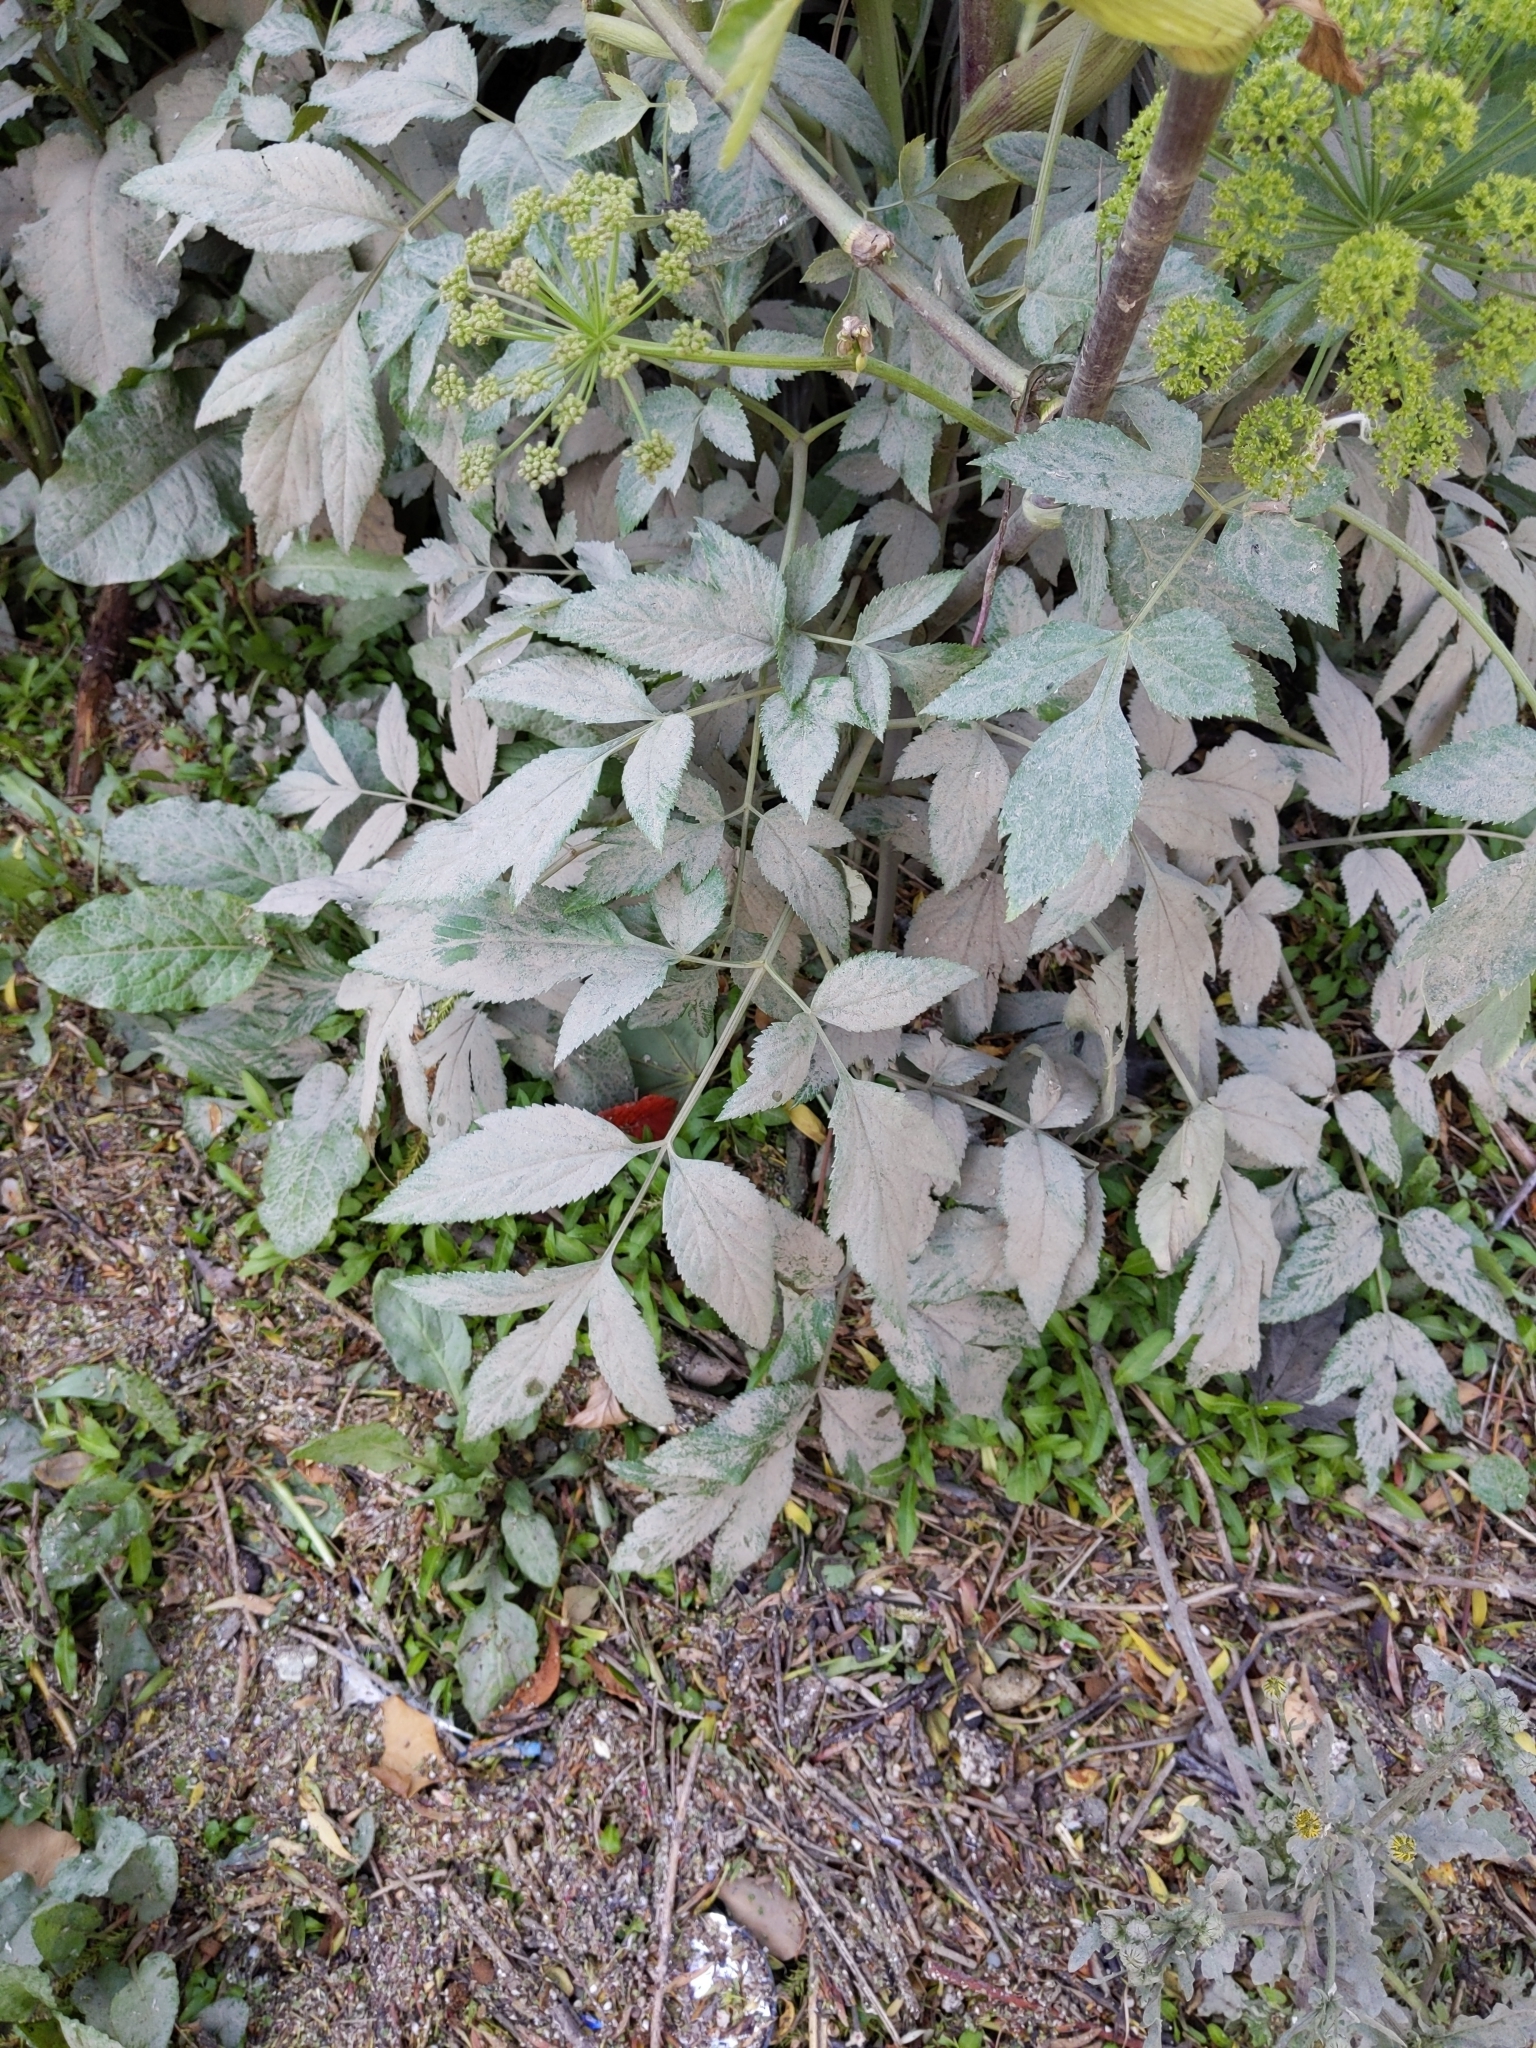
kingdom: Plantae
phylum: Tracheophyta
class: Magnoliopsida
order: Apiales
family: Apiaceae
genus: Angelica
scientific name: Angelica archangelica
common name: Garden angelica
